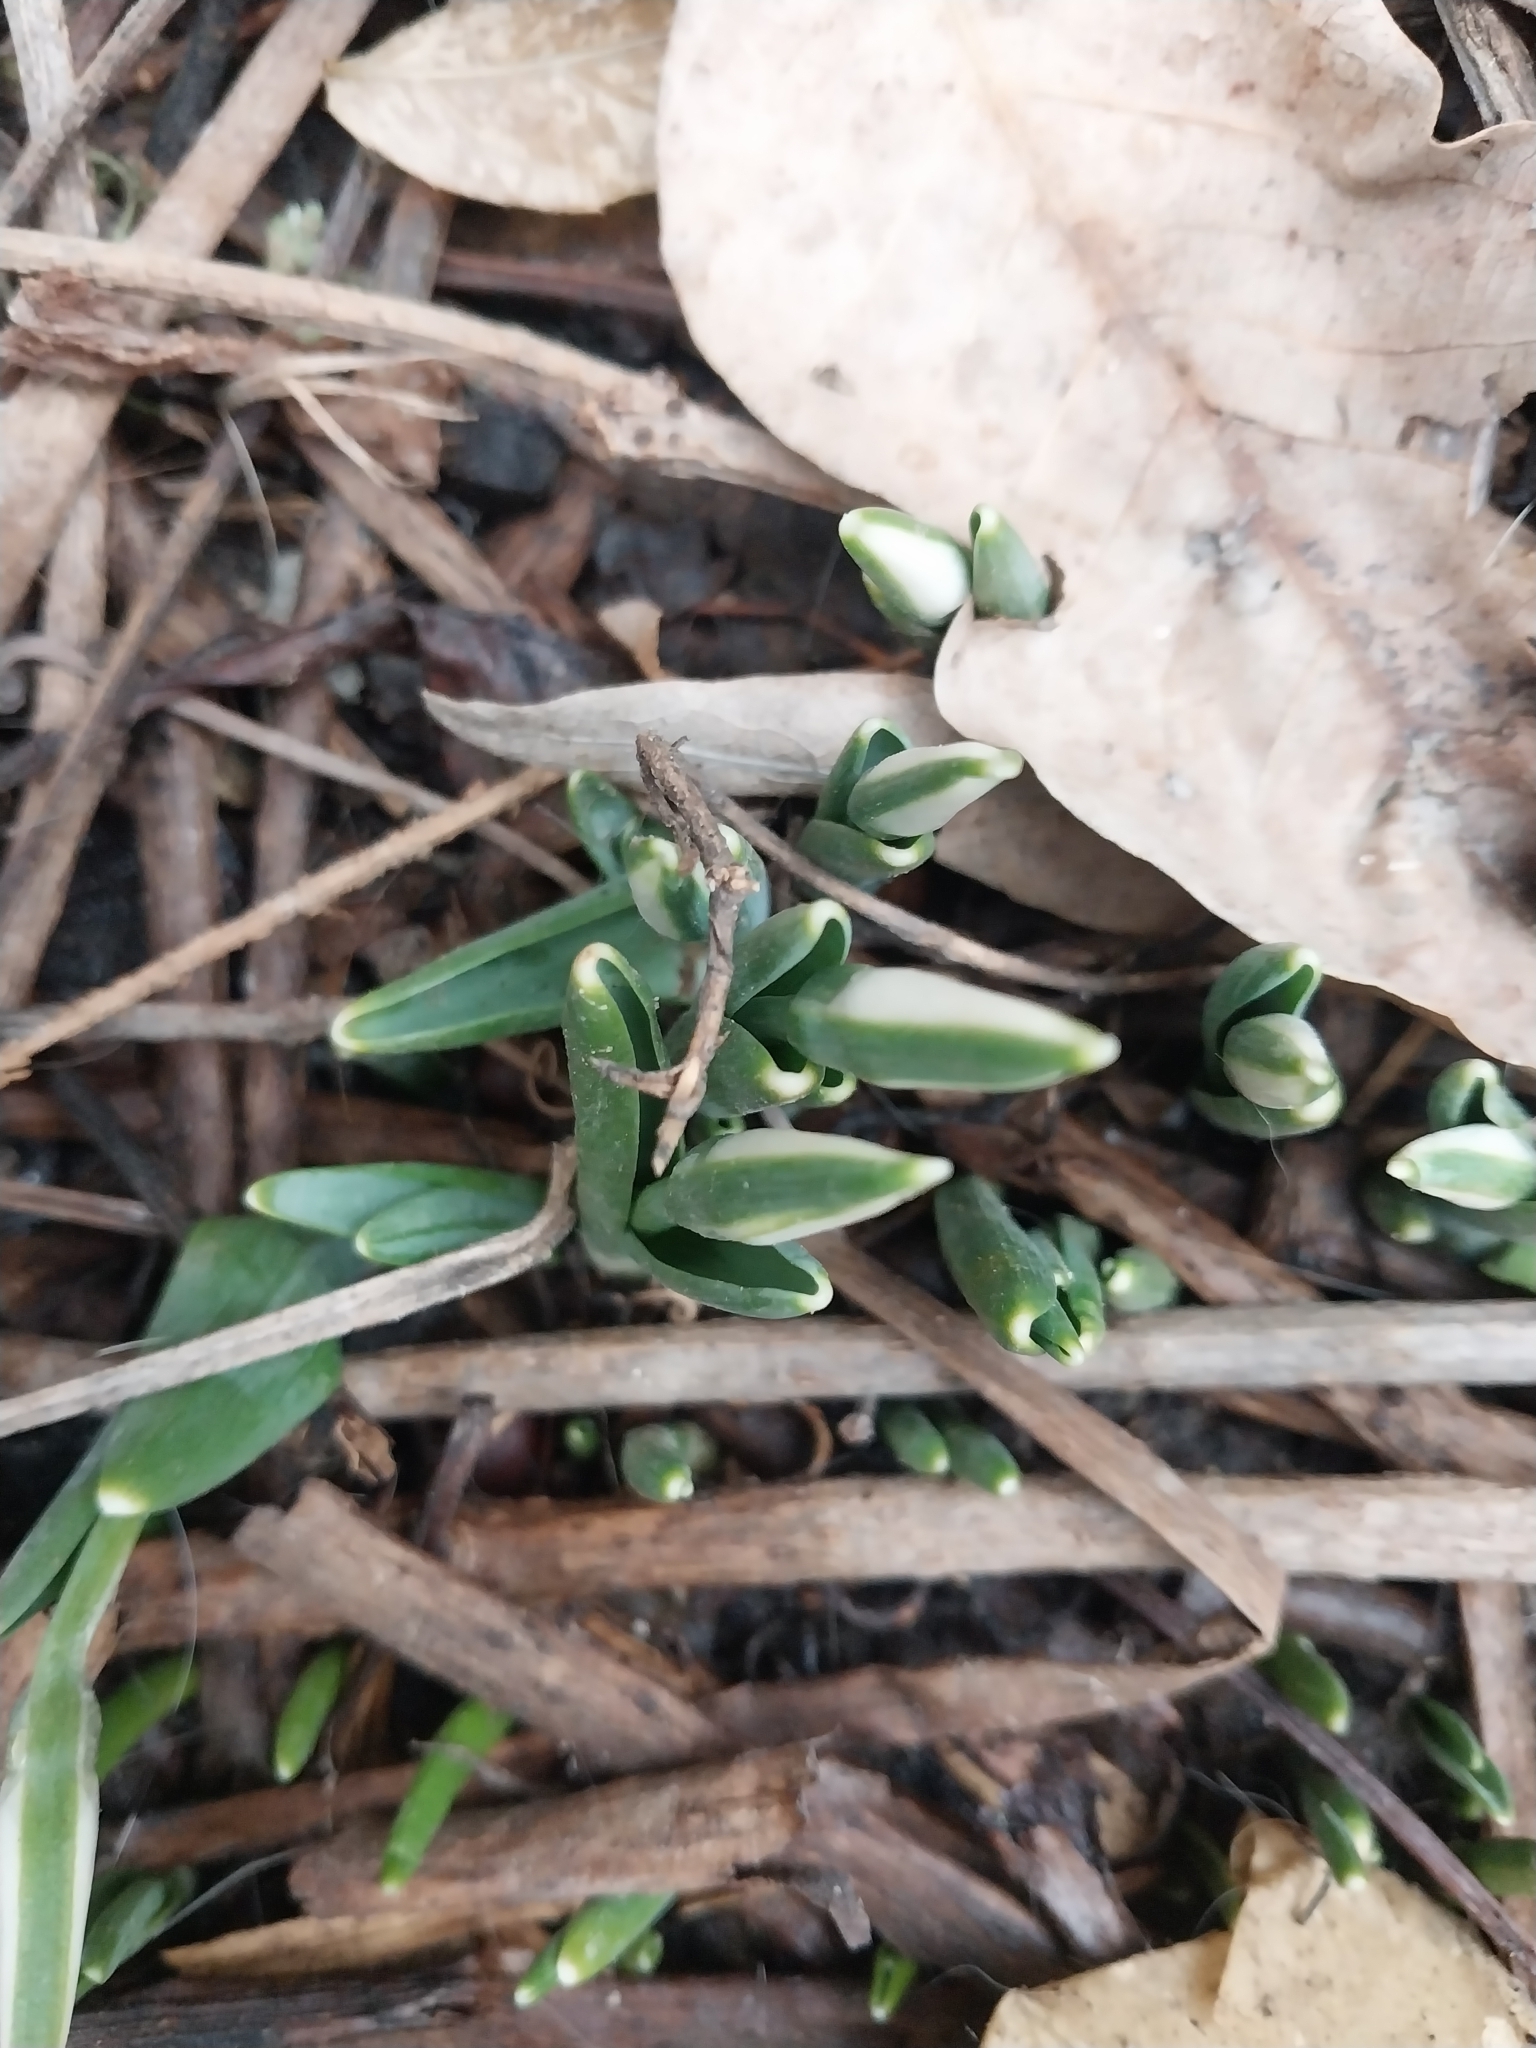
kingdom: Plantae
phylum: Tracheophyta
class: Liliopsida
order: Asparagales
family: Amaryllidaceae
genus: Galanthus
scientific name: Galanthus alpinus
